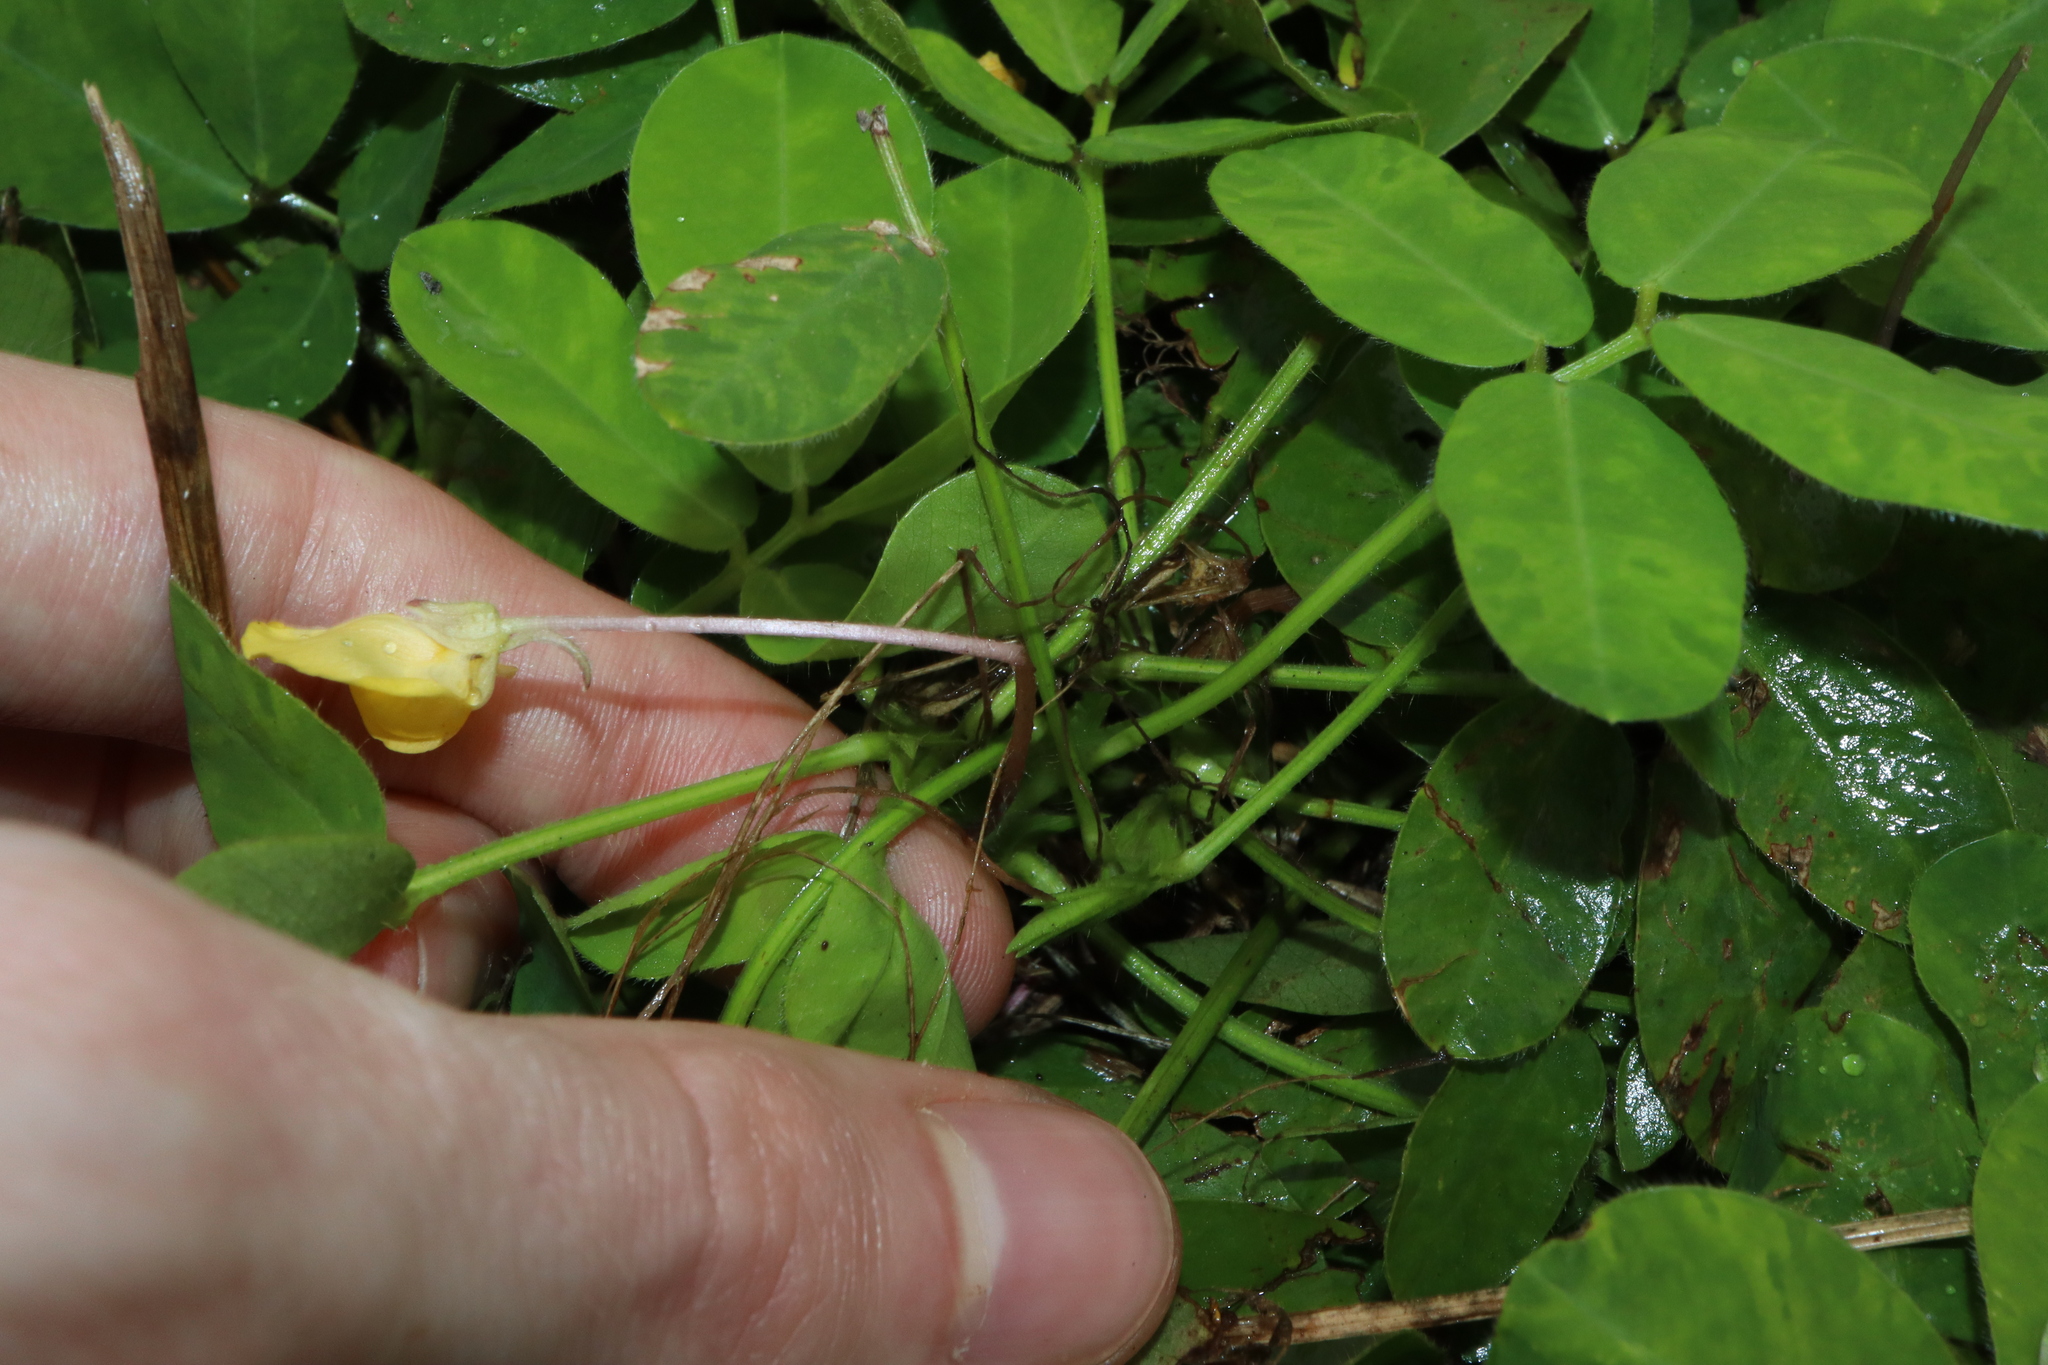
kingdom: Plantae
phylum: Tracheophyta
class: Magnoliopsida
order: Fabales
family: Fabaceae
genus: Arachis
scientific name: Arachis pintoi
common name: Pinto peanut
